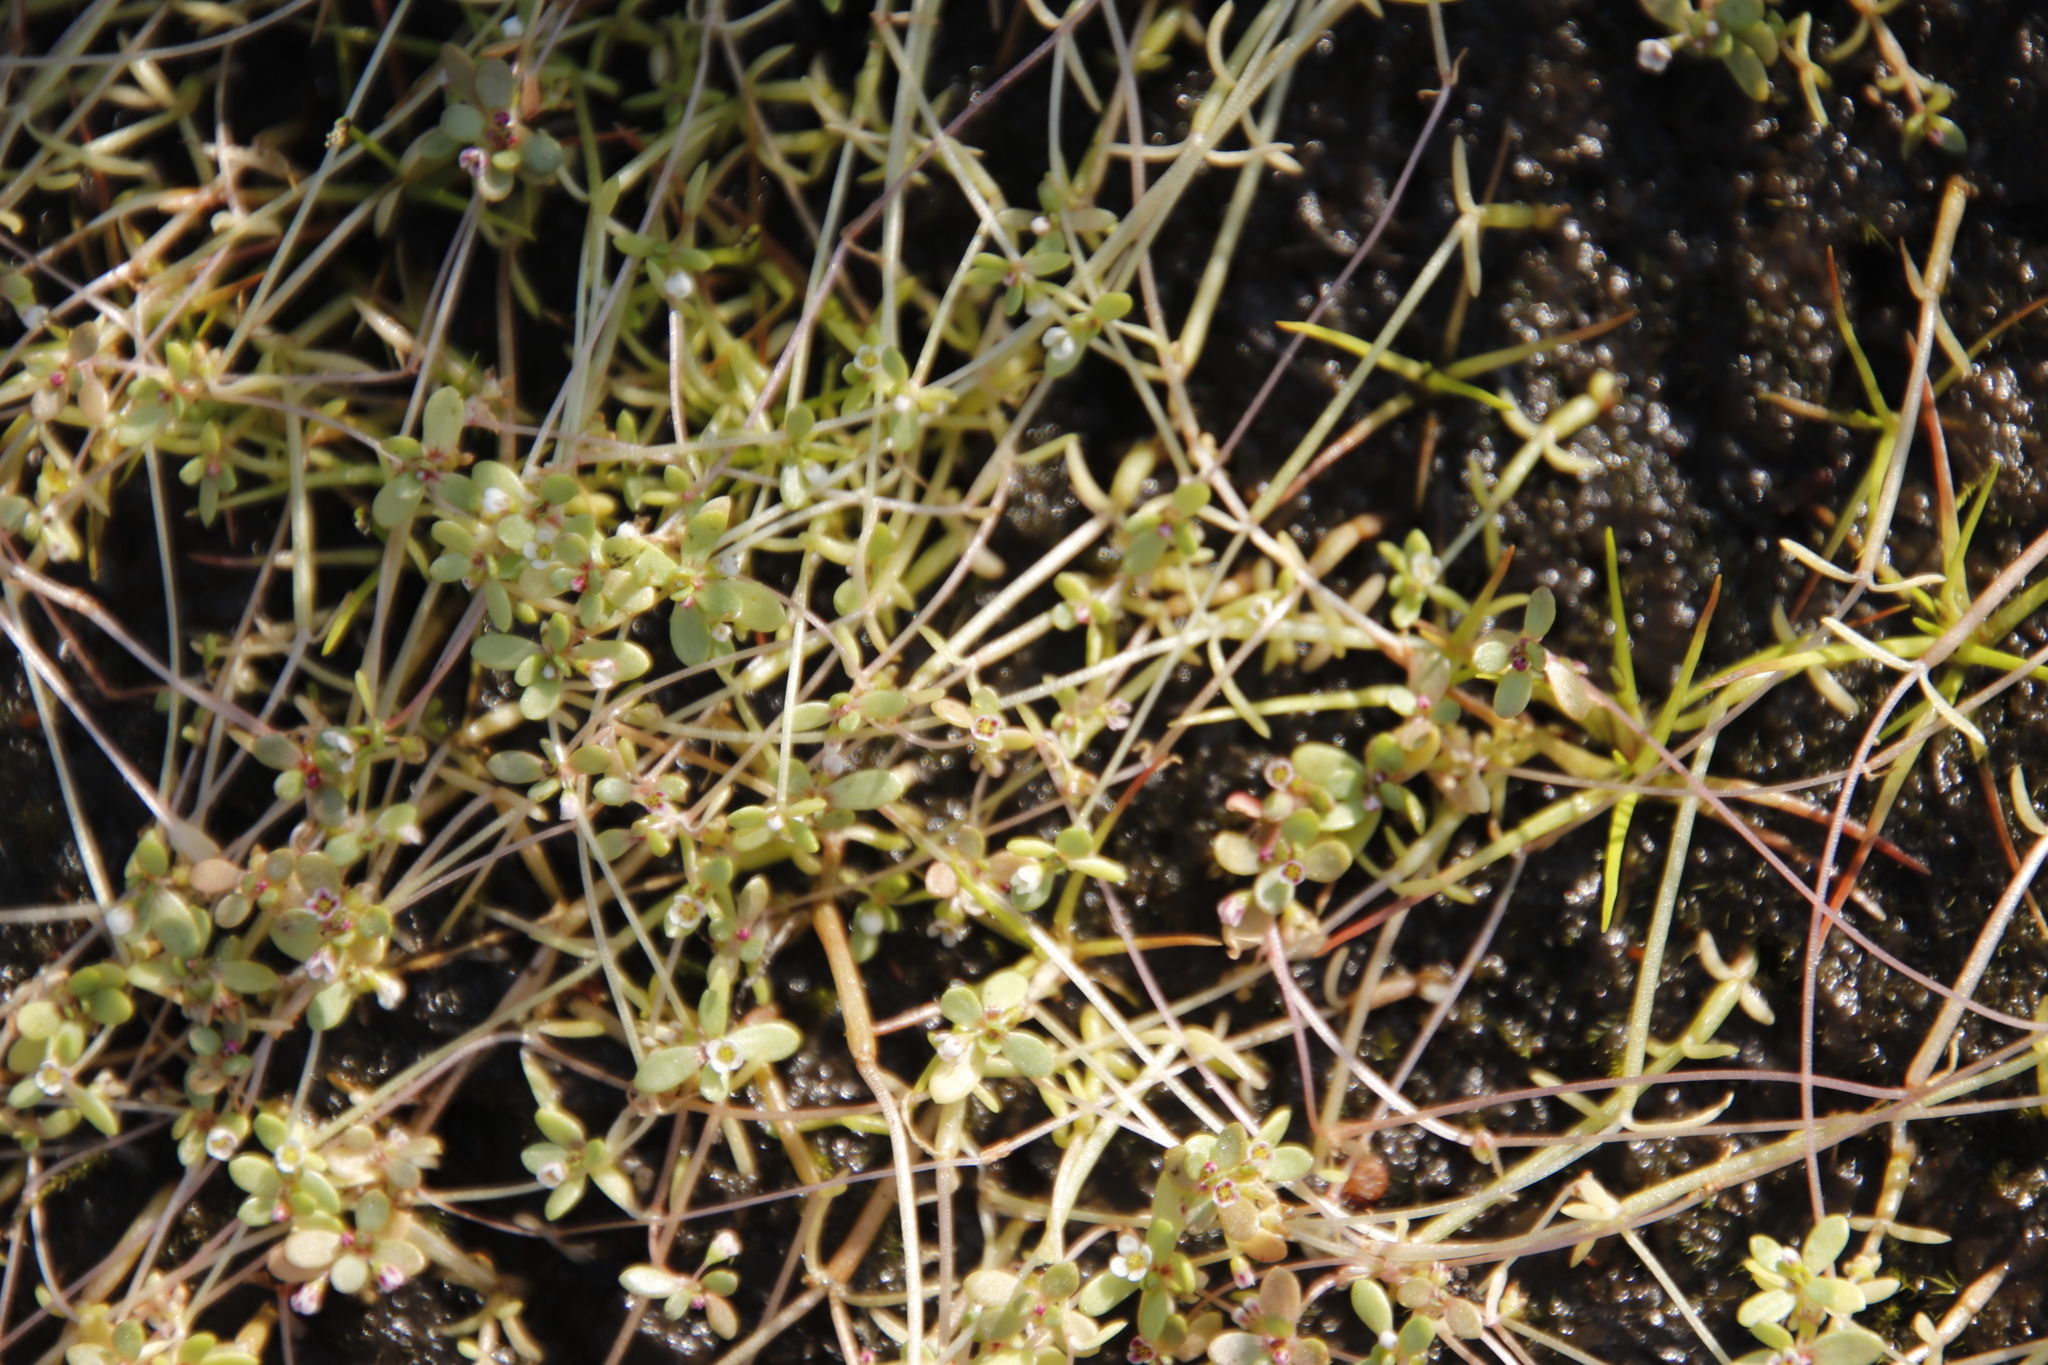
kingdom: Plantae
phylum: Tracheophyta
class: Magnoliopsida
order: Saxifragales
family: Crassulaceae
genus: Crassula
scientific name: Crassula natans
